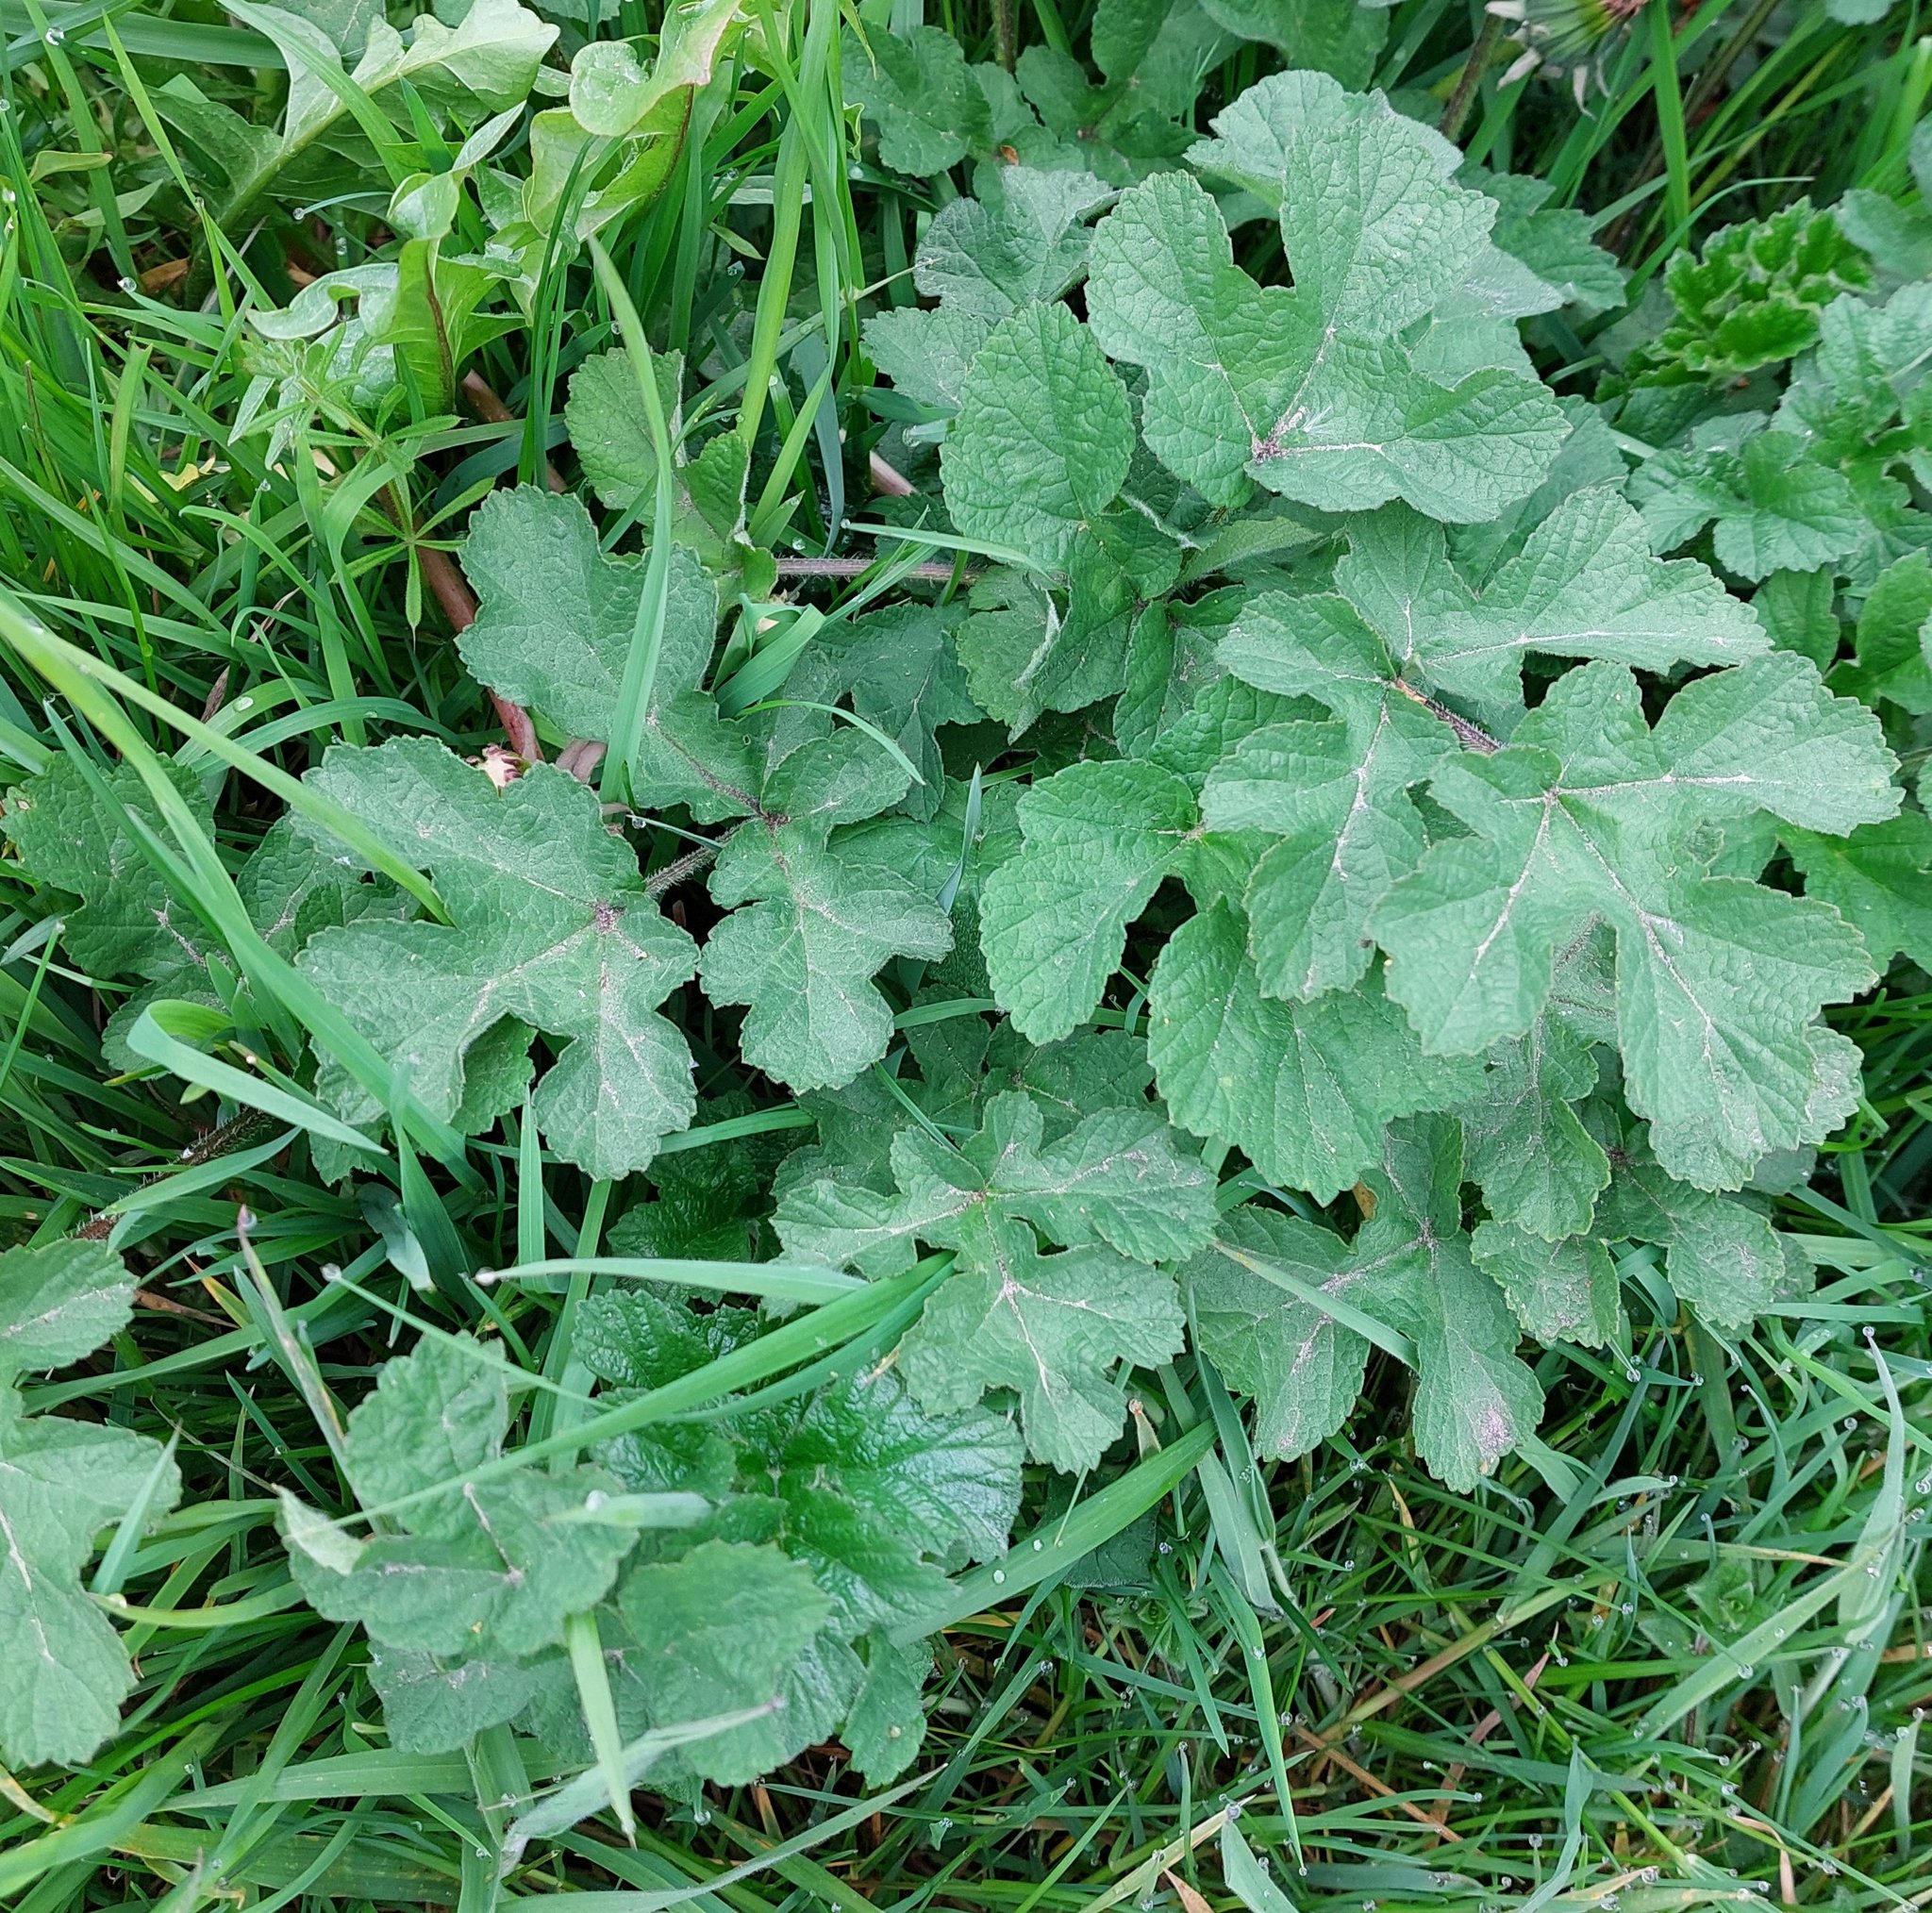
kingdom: Plantae
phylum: Tracheophyta
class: Magnoliopsida
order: Apiales
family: Apiaceae
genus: Heracleum
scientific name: Heracleum sphondylium
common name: Hogweed
